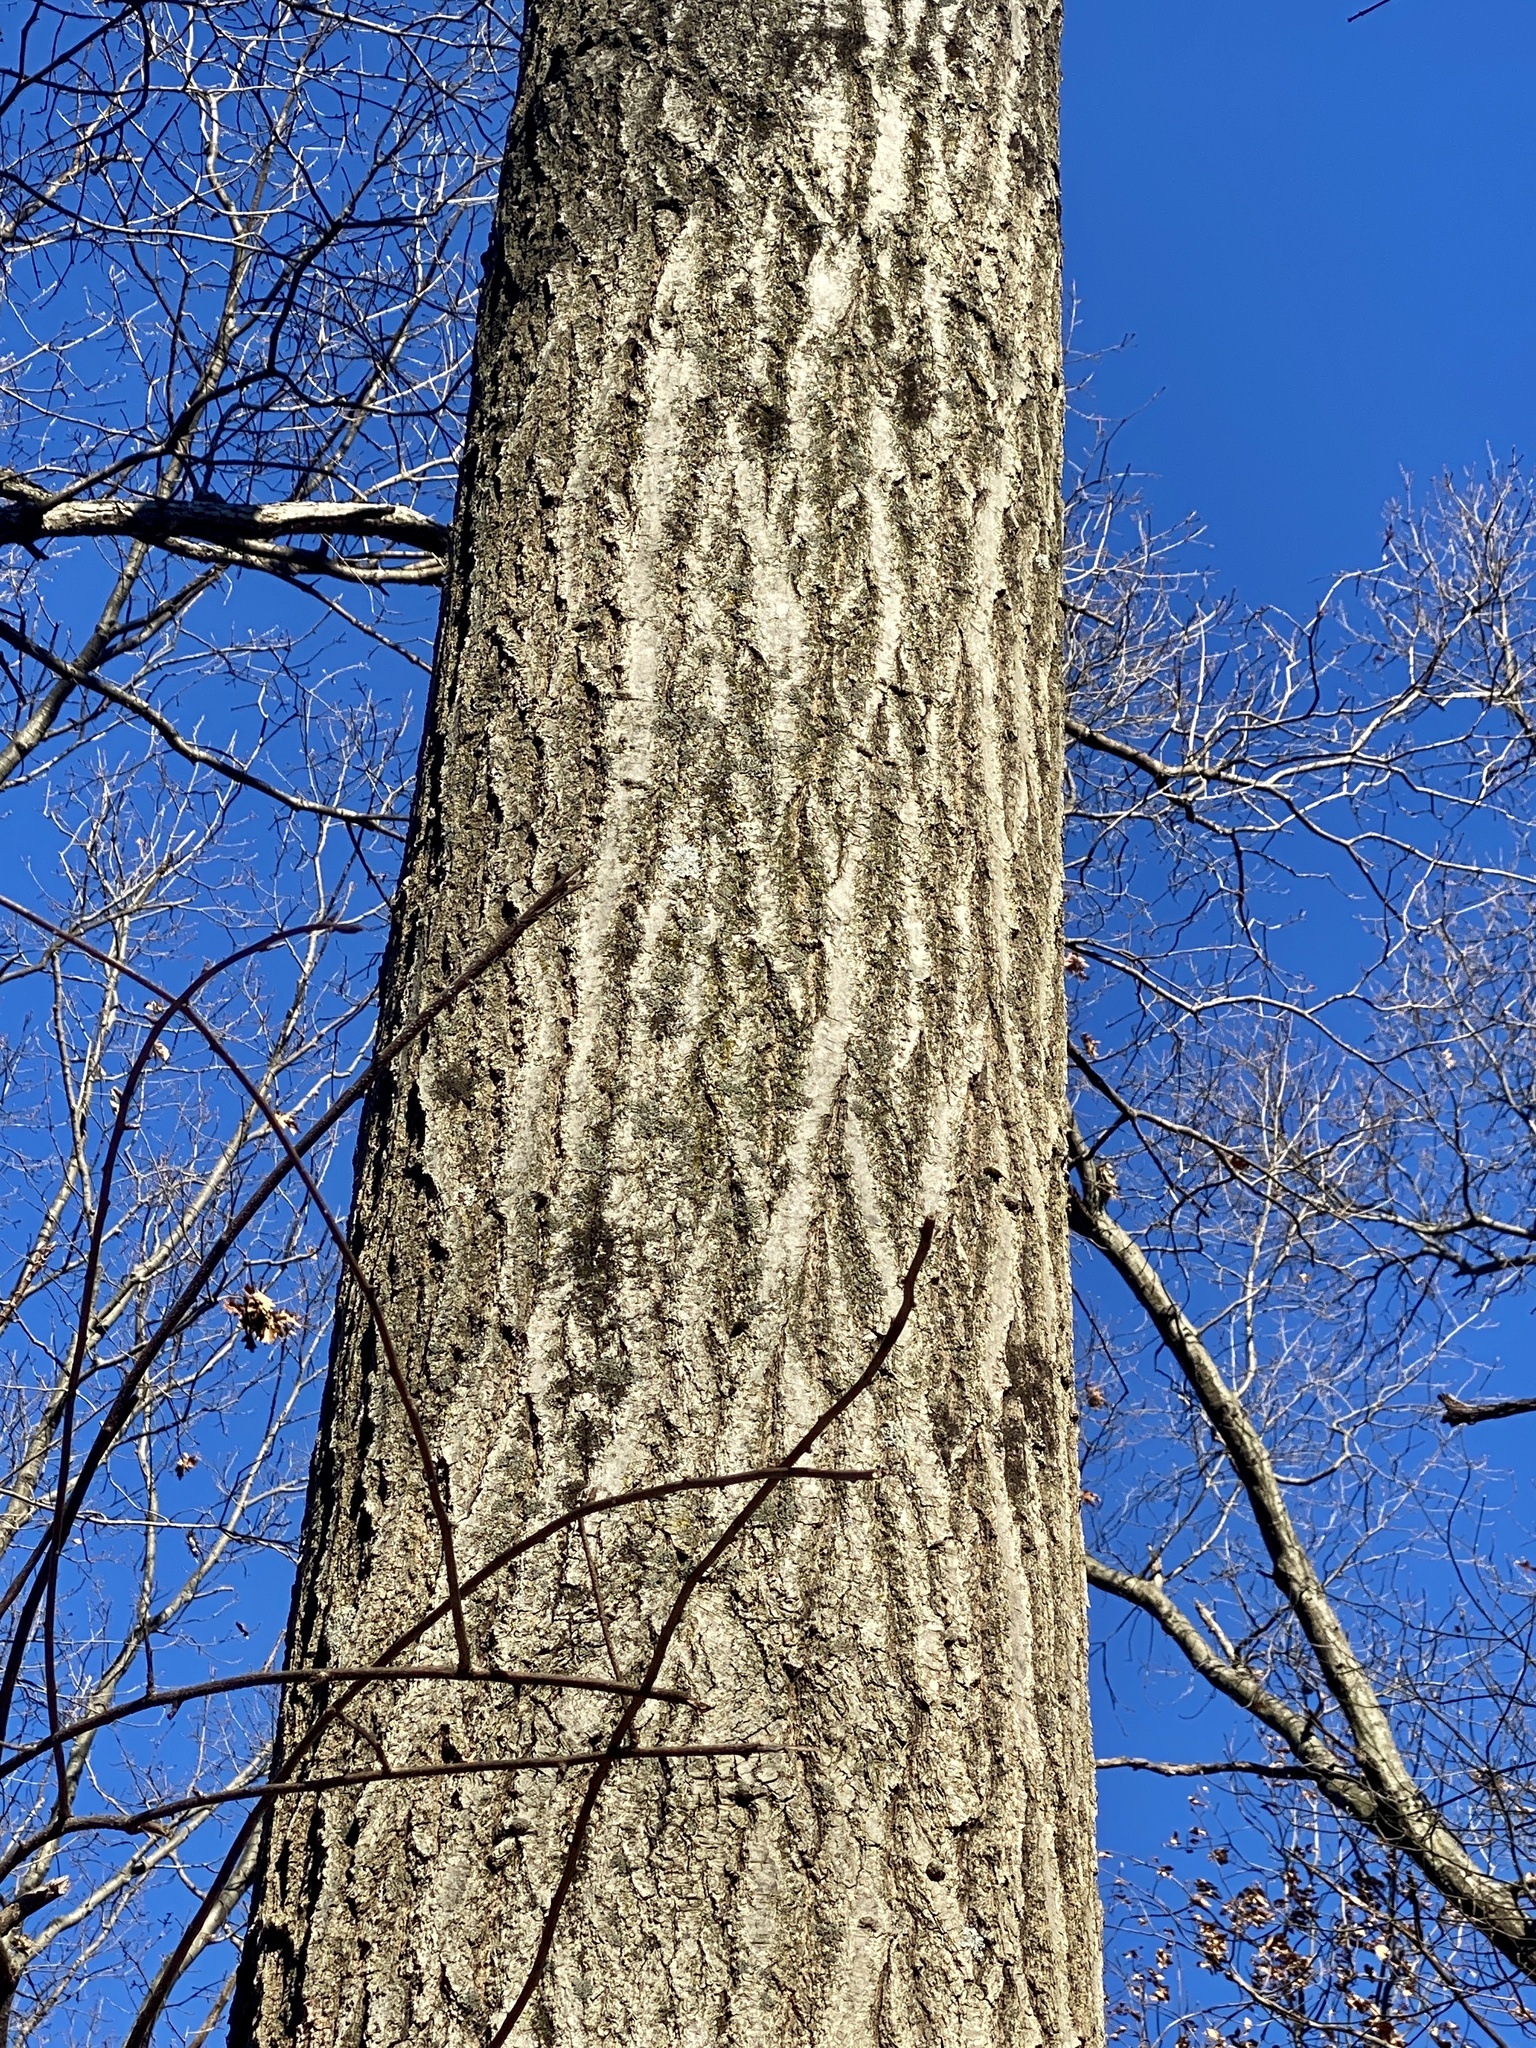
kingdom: Plantae
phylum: Tracheophyta
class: Magnoliopsida
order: Fagales
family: Fagaceae
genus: Quercus
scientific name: Quercus rubra
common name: Red oak
